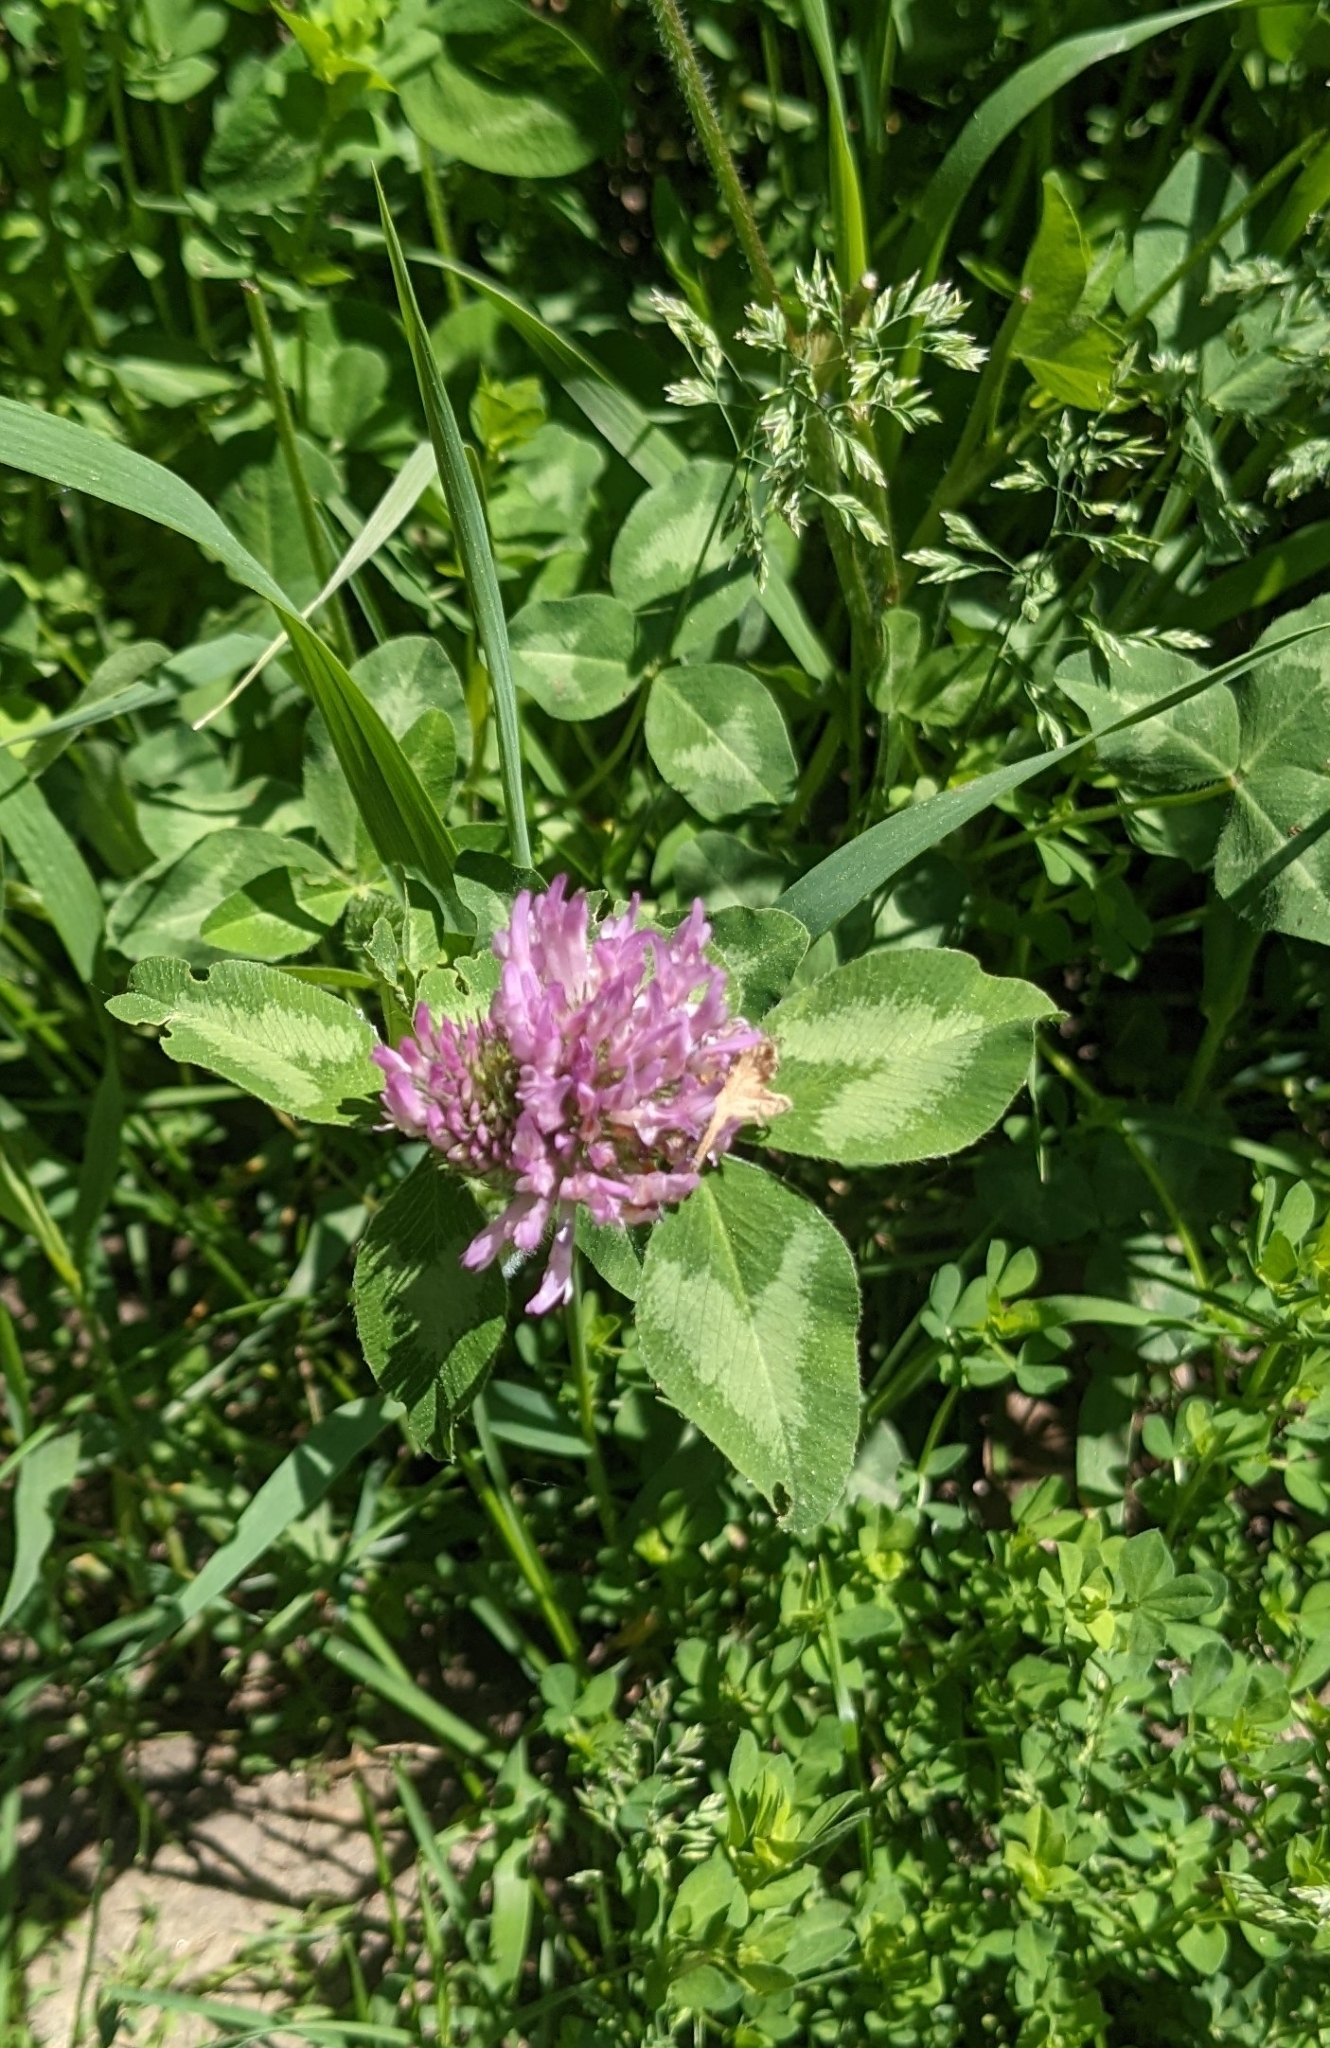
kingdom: Plantae
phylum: Tracheophyta
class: Magnoliopsida
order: Fabales
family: Fabaceae
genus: Trifolium
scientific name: Trifolium pratense
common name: Red clover
